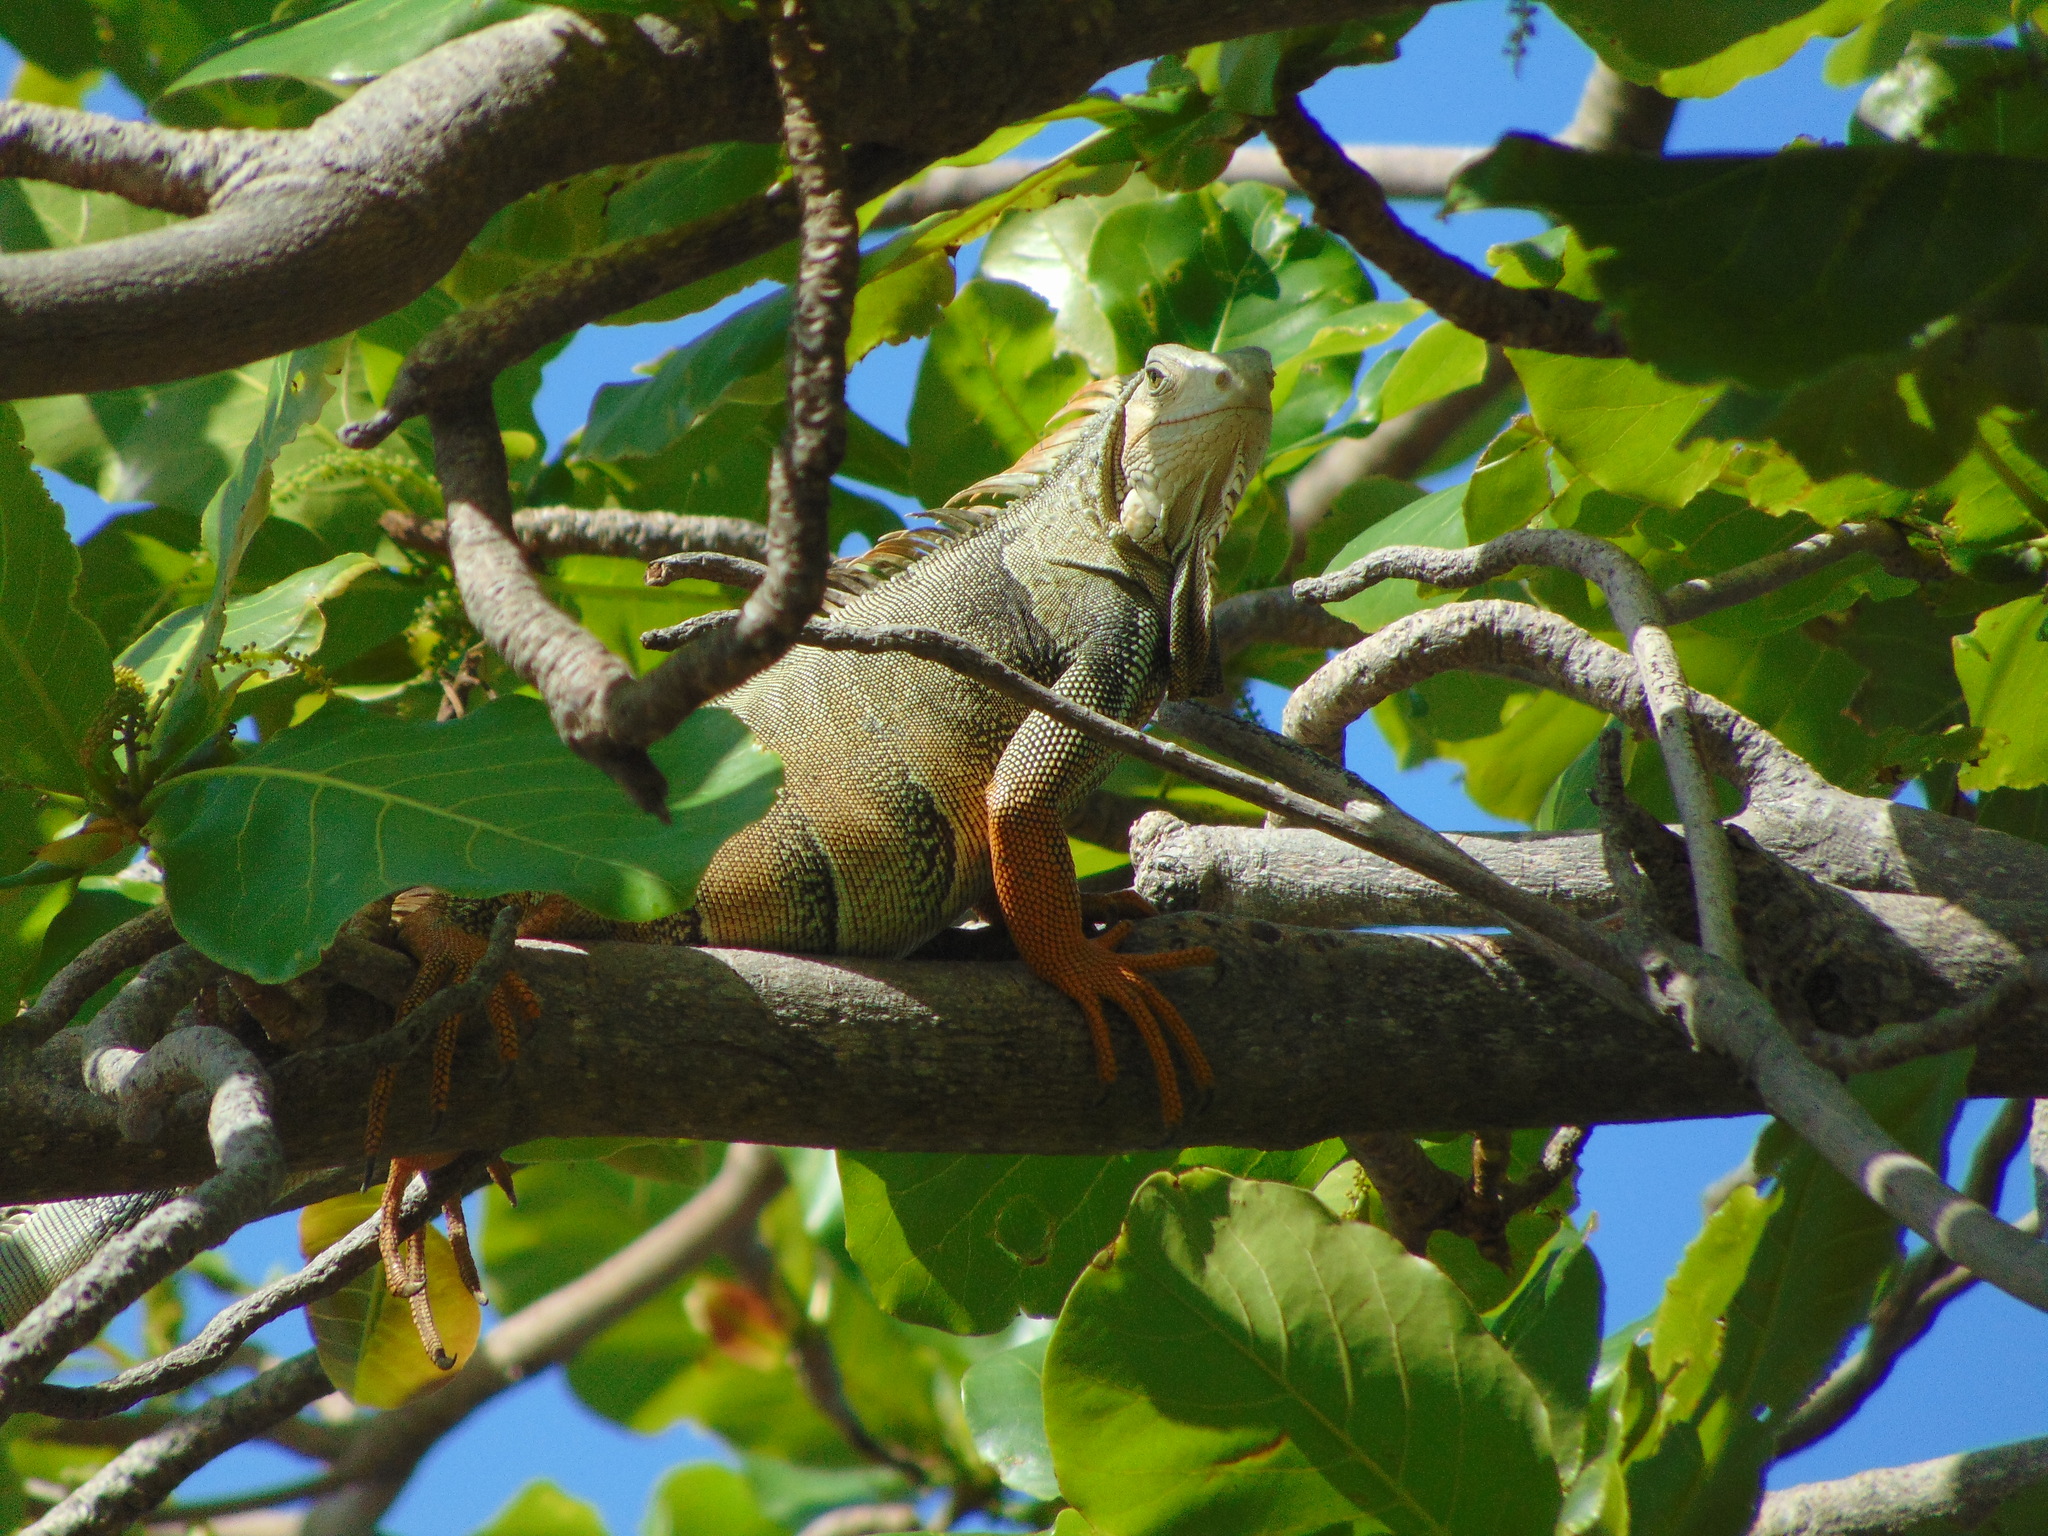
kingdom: Animalia
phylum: Chordata
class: Squamata
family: Iguanidae
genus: Iguana
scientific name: Iguana iguana
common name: Green iguana
